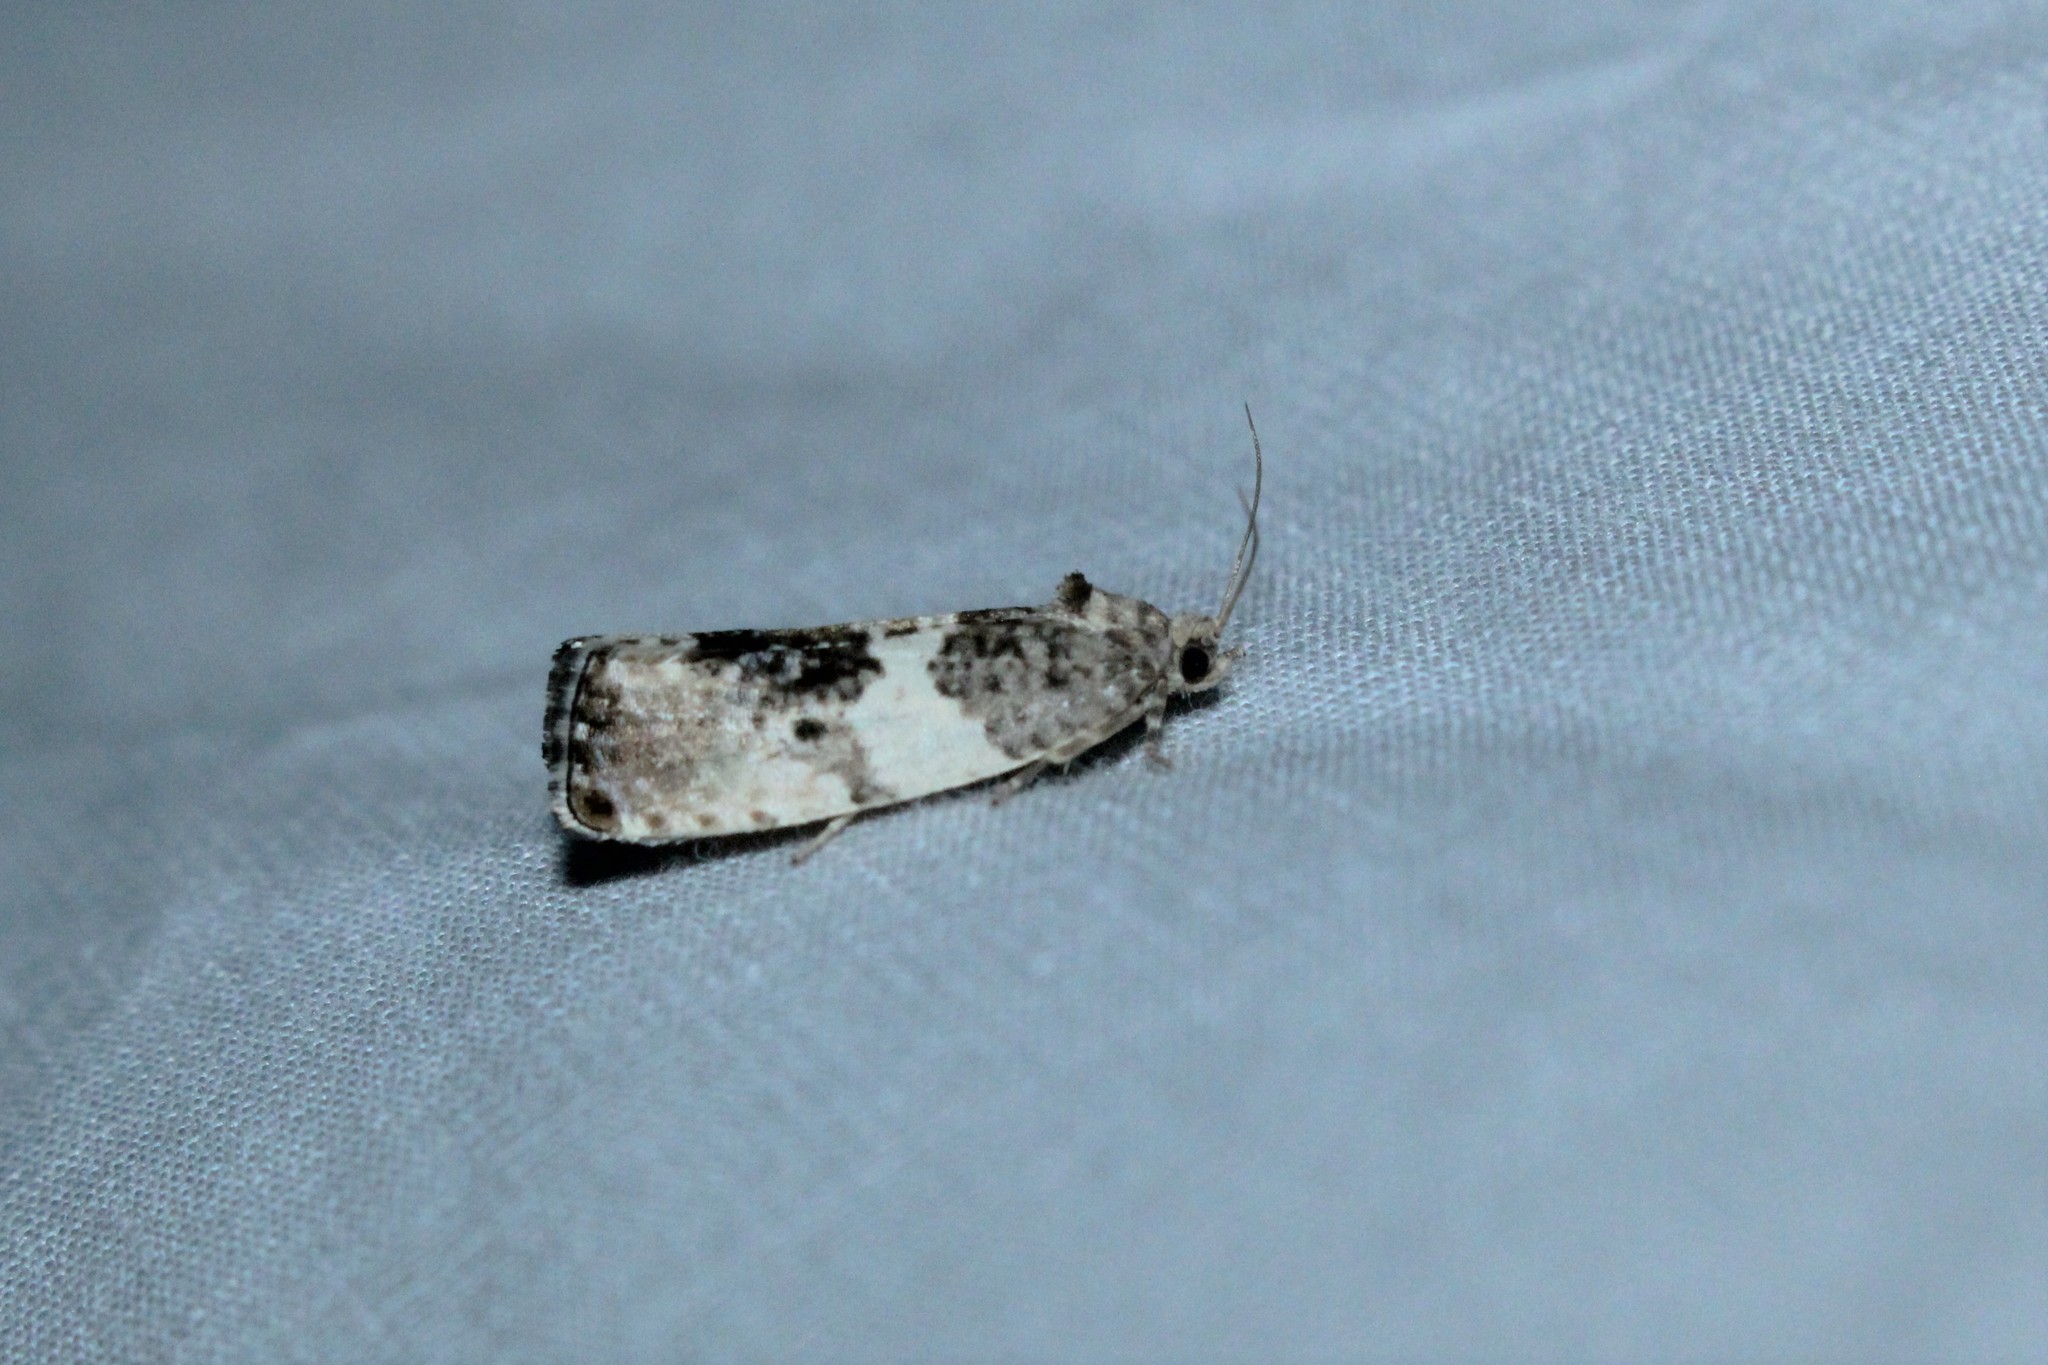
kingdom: Animalia
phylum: Arthropoda
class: Insecta
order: Lepidoptera
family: Tortricidae
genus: Pseudosciaphila
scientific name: Pseudosciaphila duplex
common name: Poplar leafroller moth
